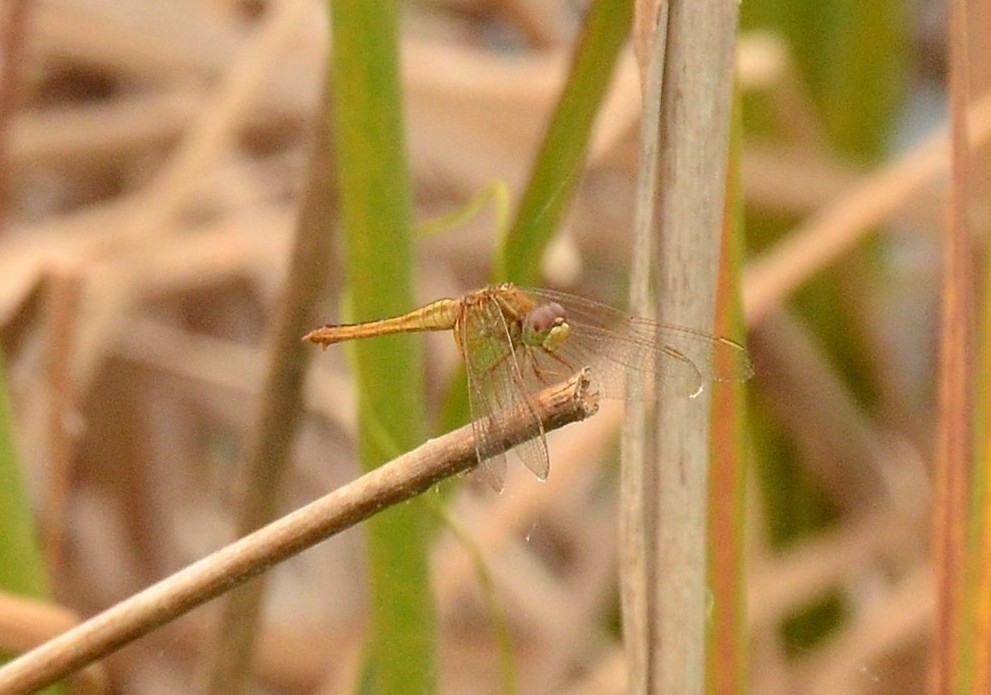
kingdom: Animalia
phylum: Arthropoda
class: Insecta
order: Odonata
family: Libellulidae
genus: Crocothemis
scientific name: Crocothemis servilia
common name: Scarlet skimmer
